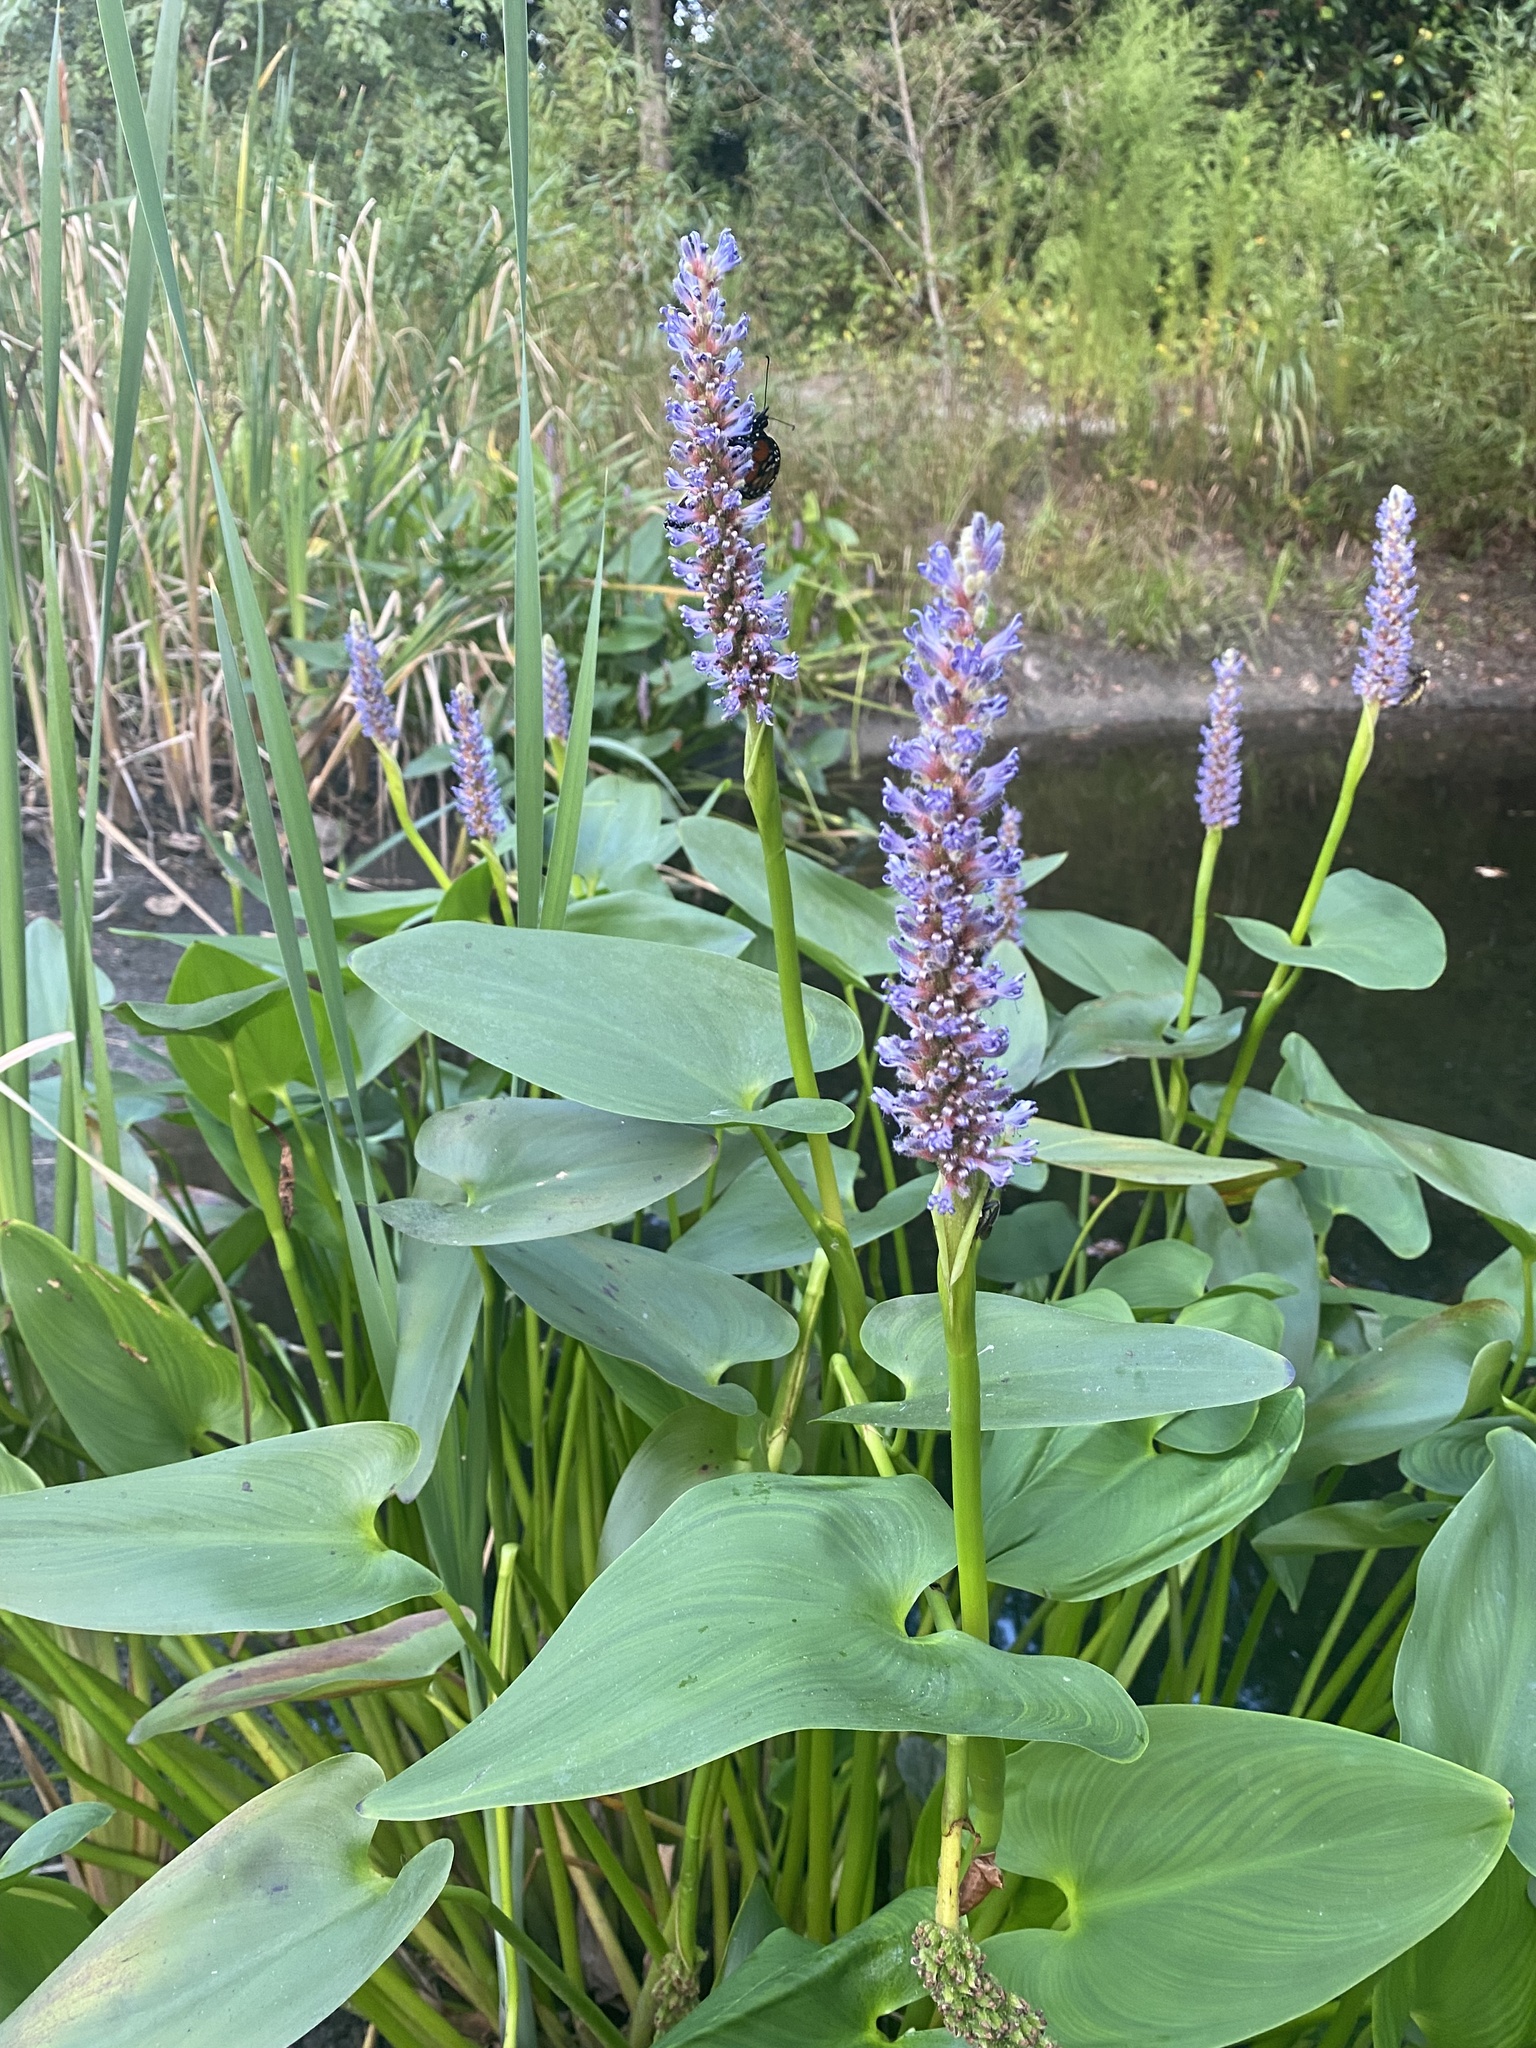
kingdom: Plantae
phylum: Tracheophyta
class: Liliopsida
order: Commelinales
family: Pontederiaceae
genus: Pontederia
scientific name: Pontederia cordata
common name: Pickerelweed
